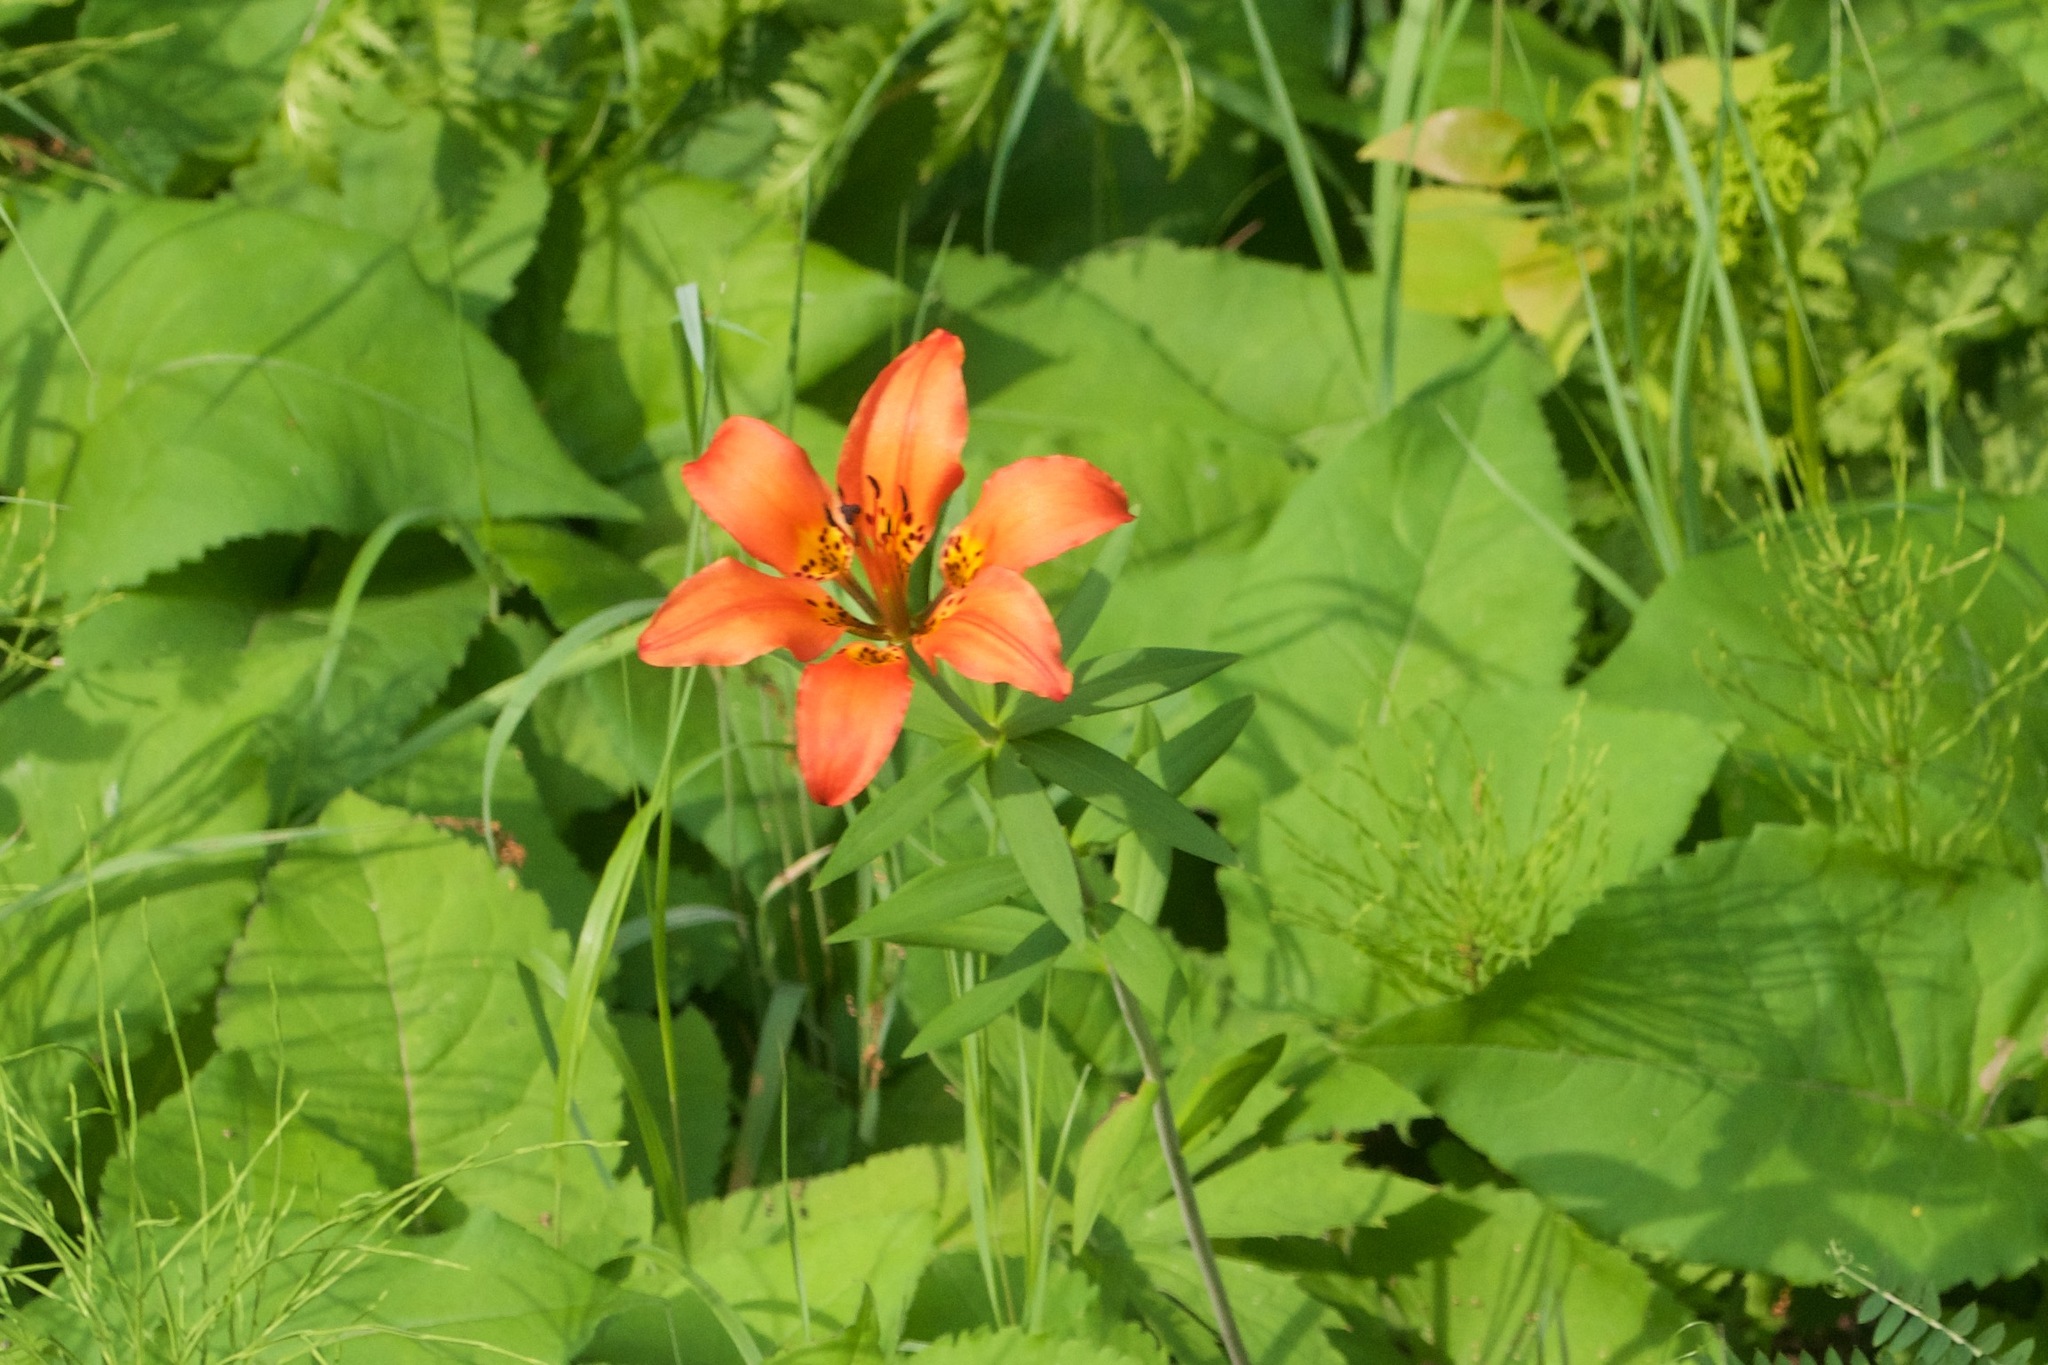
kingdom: Plantae
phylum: Tracheophyta
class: Liliopsida
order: Liliales
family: Liliaceae
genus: Lilium
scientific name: Lilium philadelphicum
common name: Red lily
